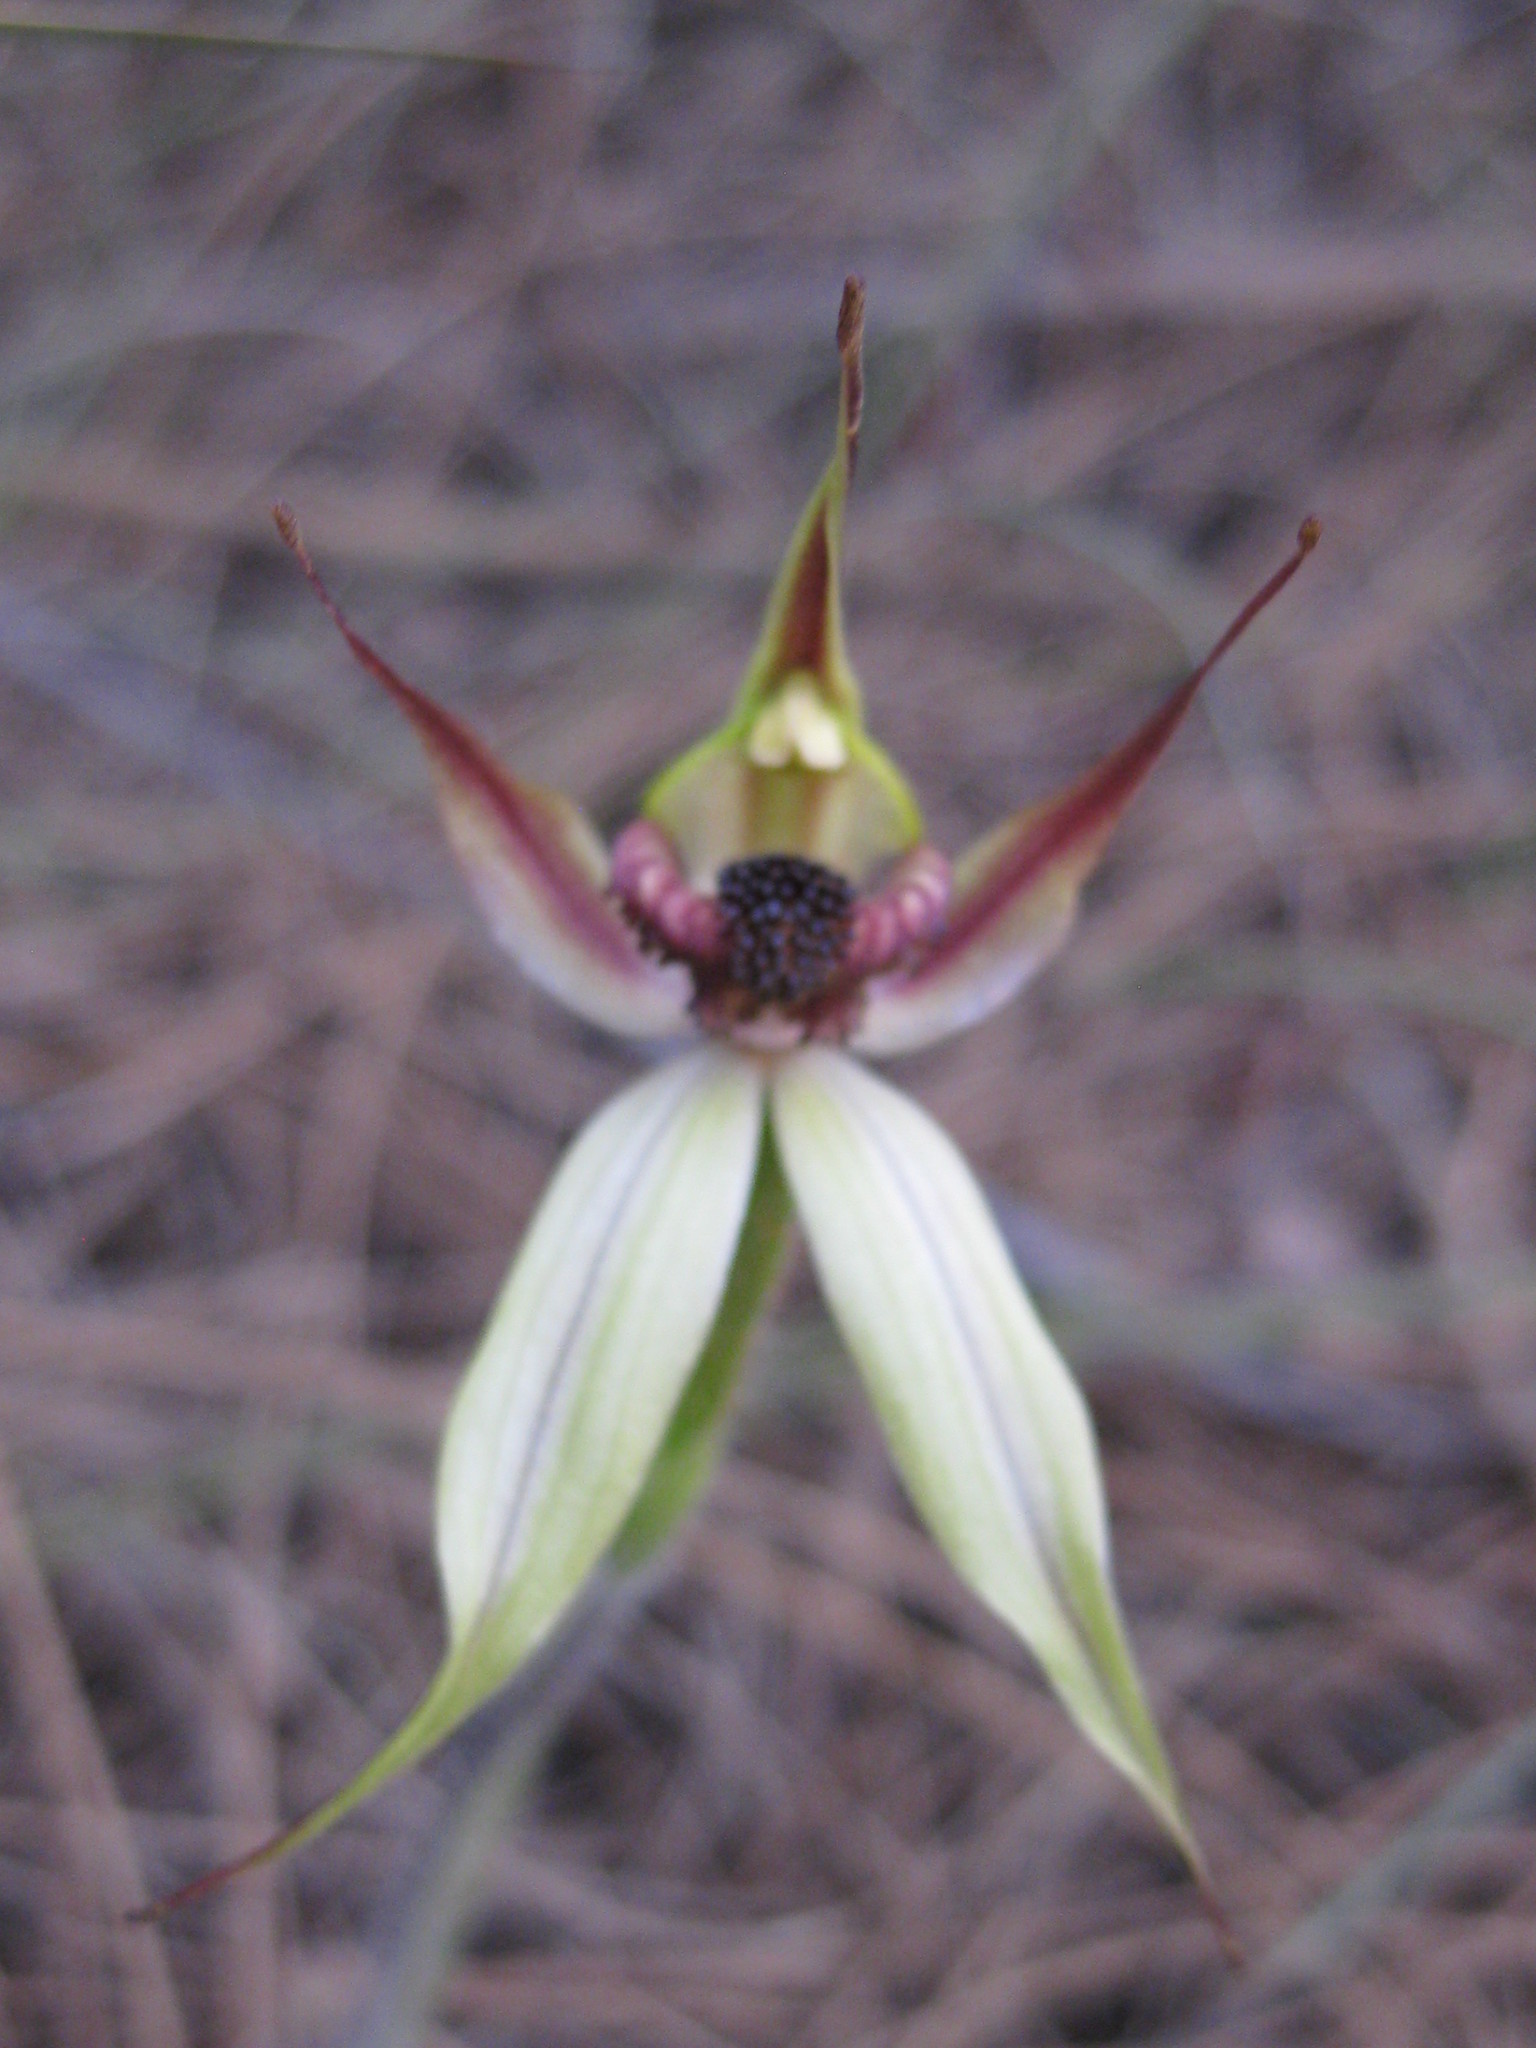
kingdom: Plantae
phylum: Tracheophyta
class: Liliopsida
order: Asparagales
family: Orchidaceae
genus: Caladenia
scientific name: Caladenia macrostylis
